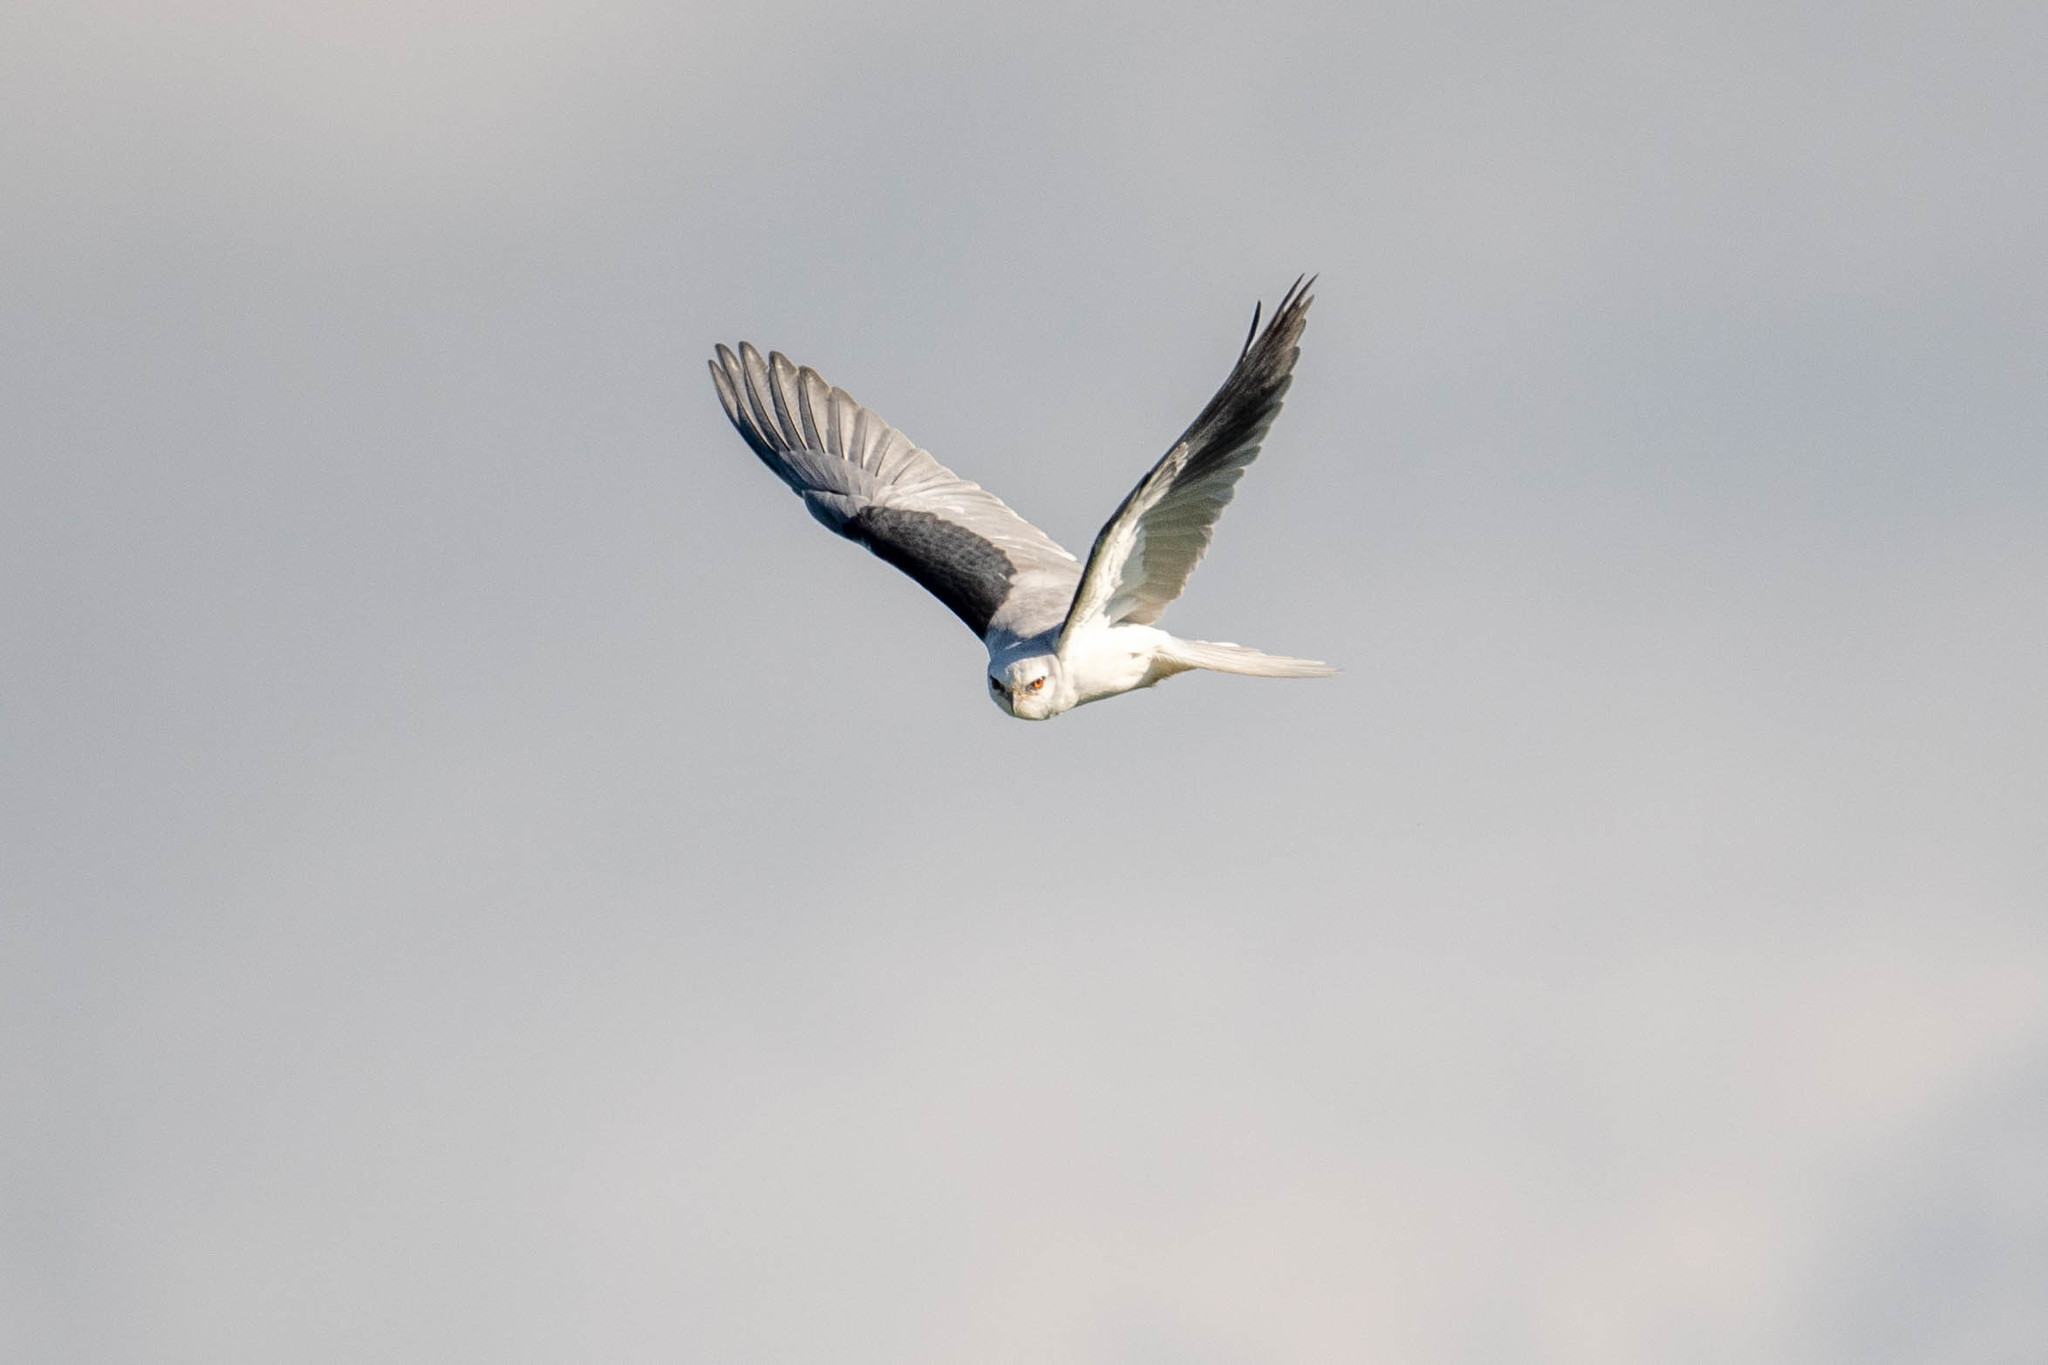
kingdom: Animalia
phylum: Chordata
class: Aves
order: Accipitriformes
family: Accipitridae
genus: Elanus
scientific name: Elanus leucurus
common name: White-tailed kite
